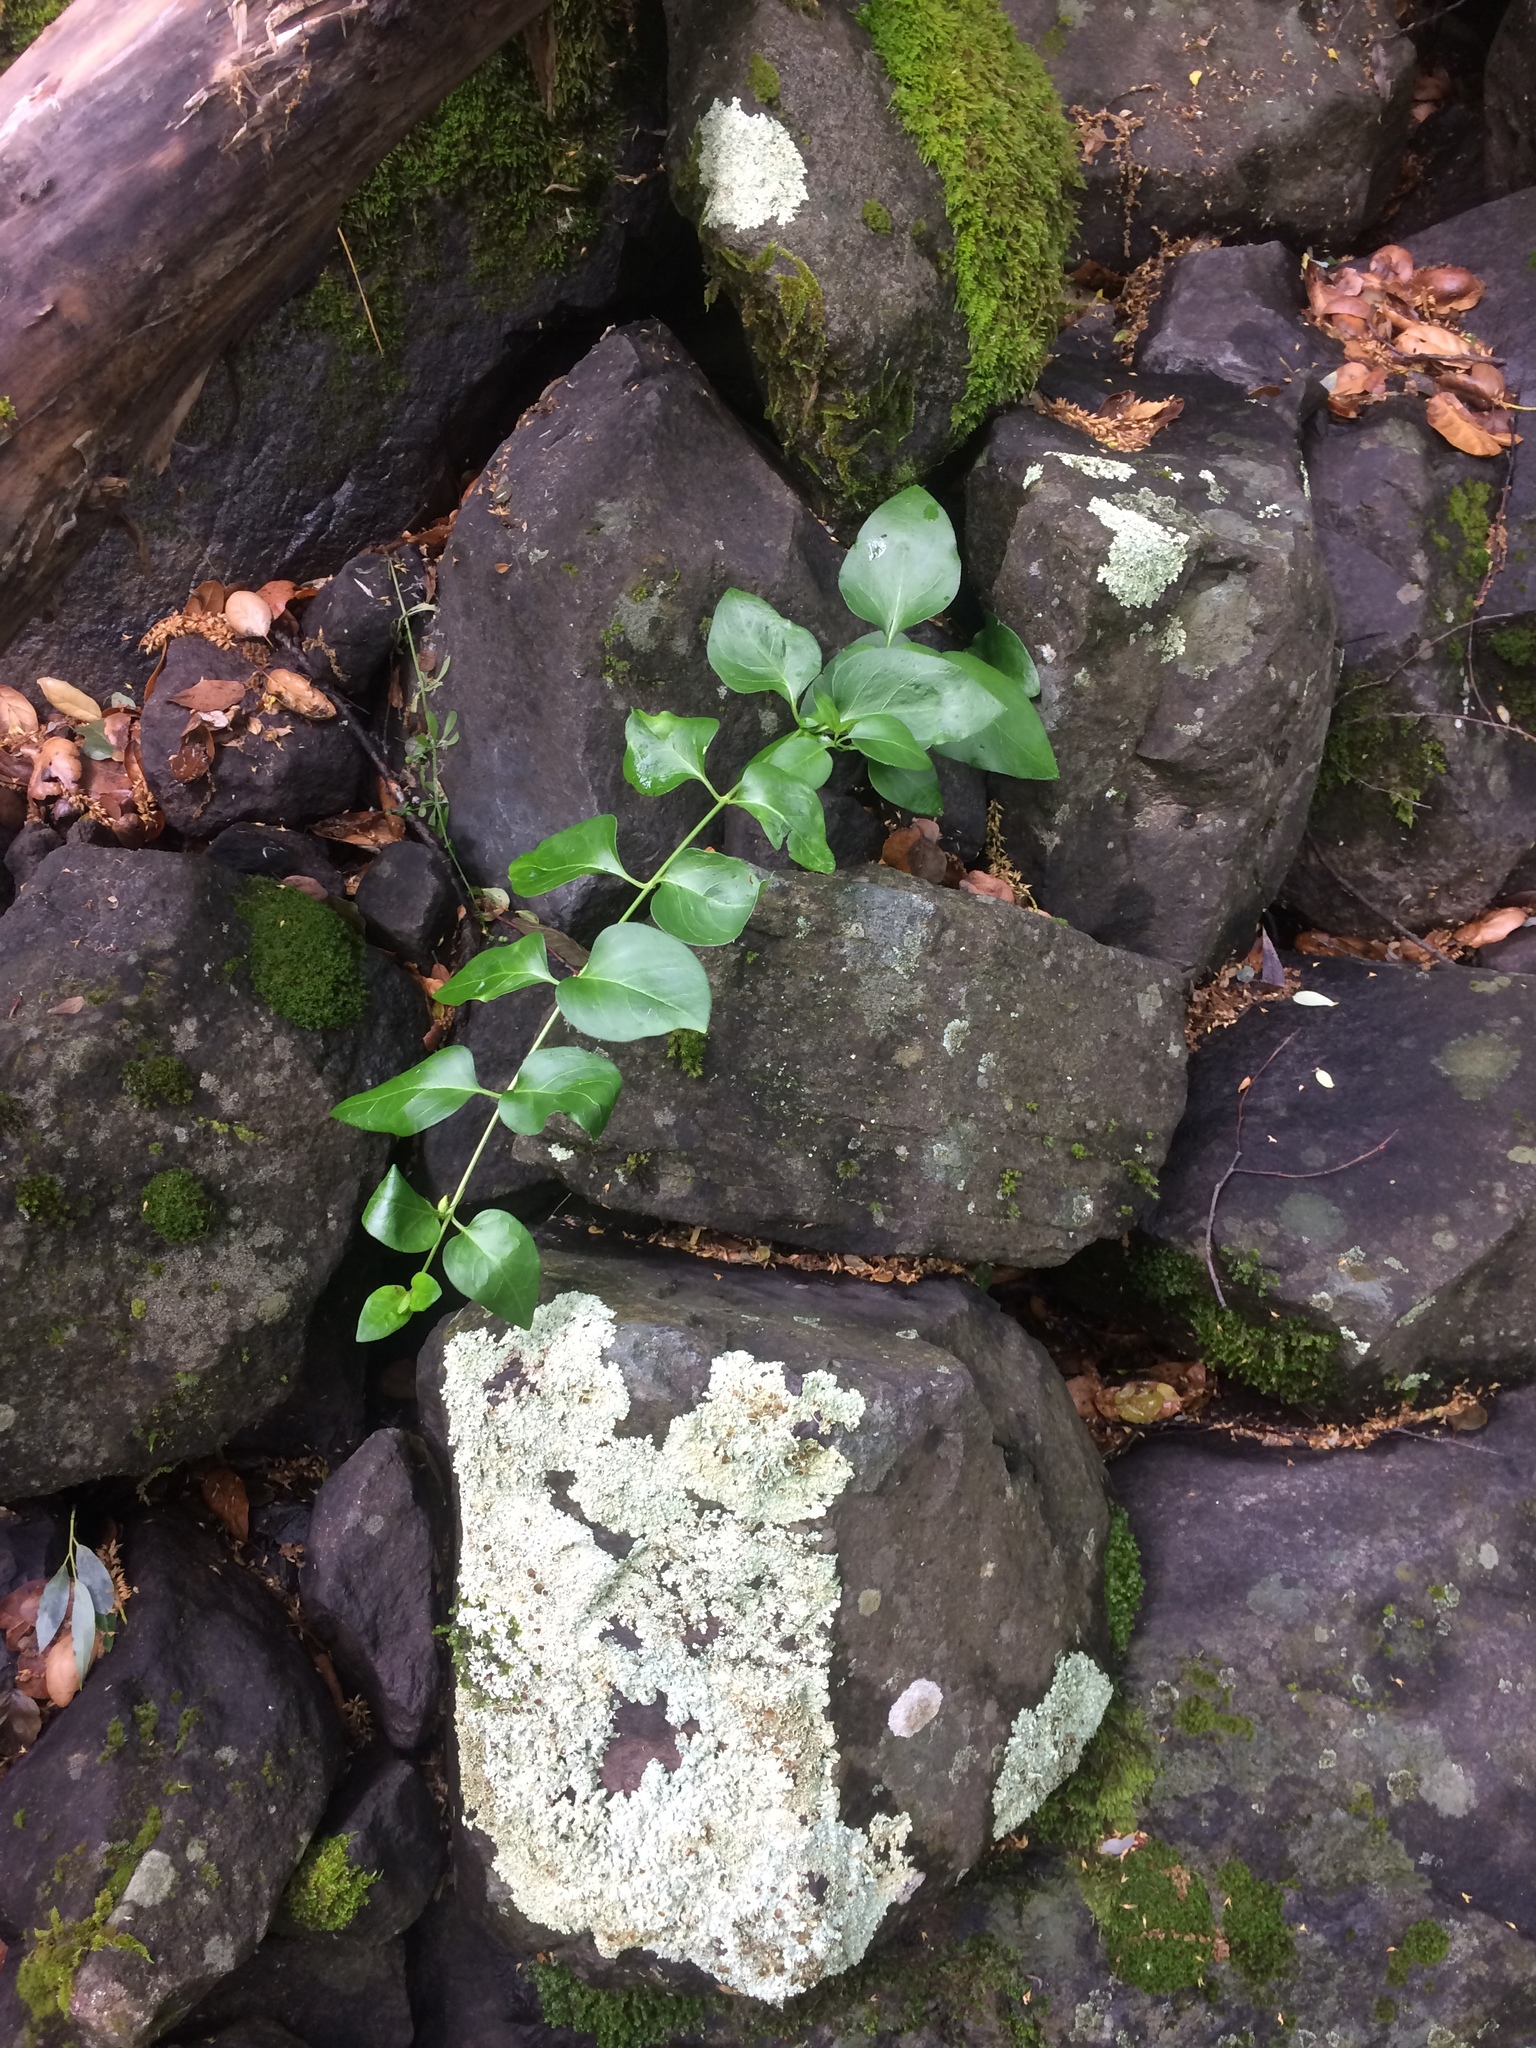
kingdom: Plantae
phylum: Tracheophyta
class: Magnoliopsida
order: Gentianales
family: Apocynaceae
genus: Vinca
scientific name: Vinca major
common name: Greater periwinkle
